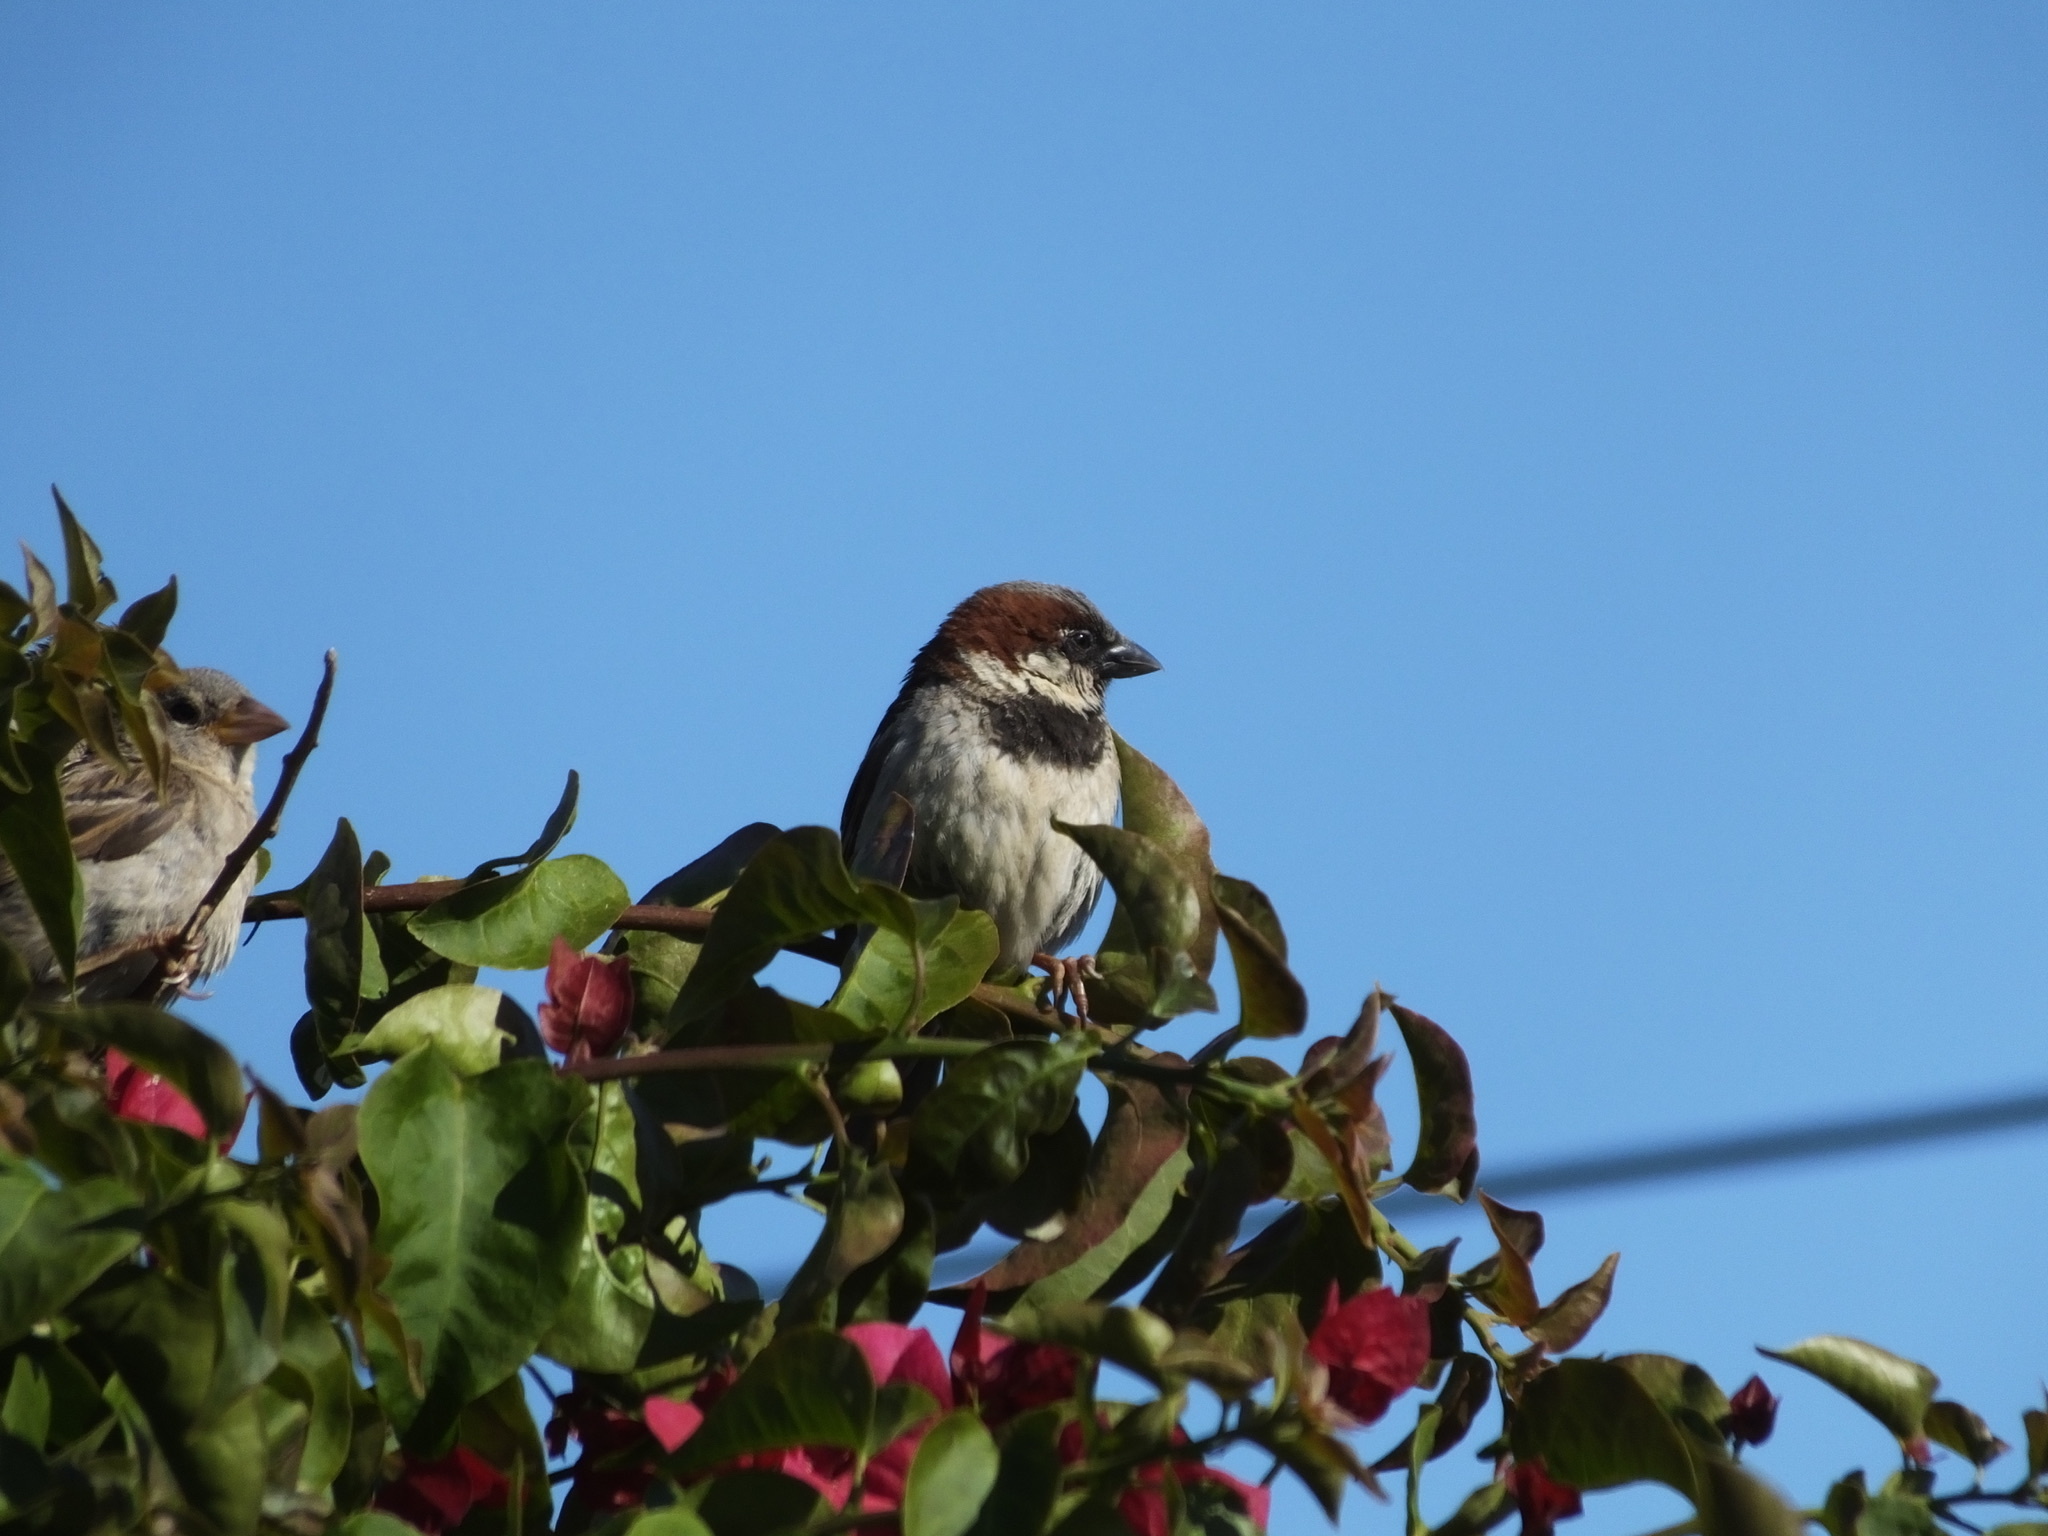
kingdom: Animalia
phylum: Chordata
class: Aves
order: Passeriformes
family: Passeridae
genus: Passer
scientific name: Passer domesticus
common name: House sparrow
